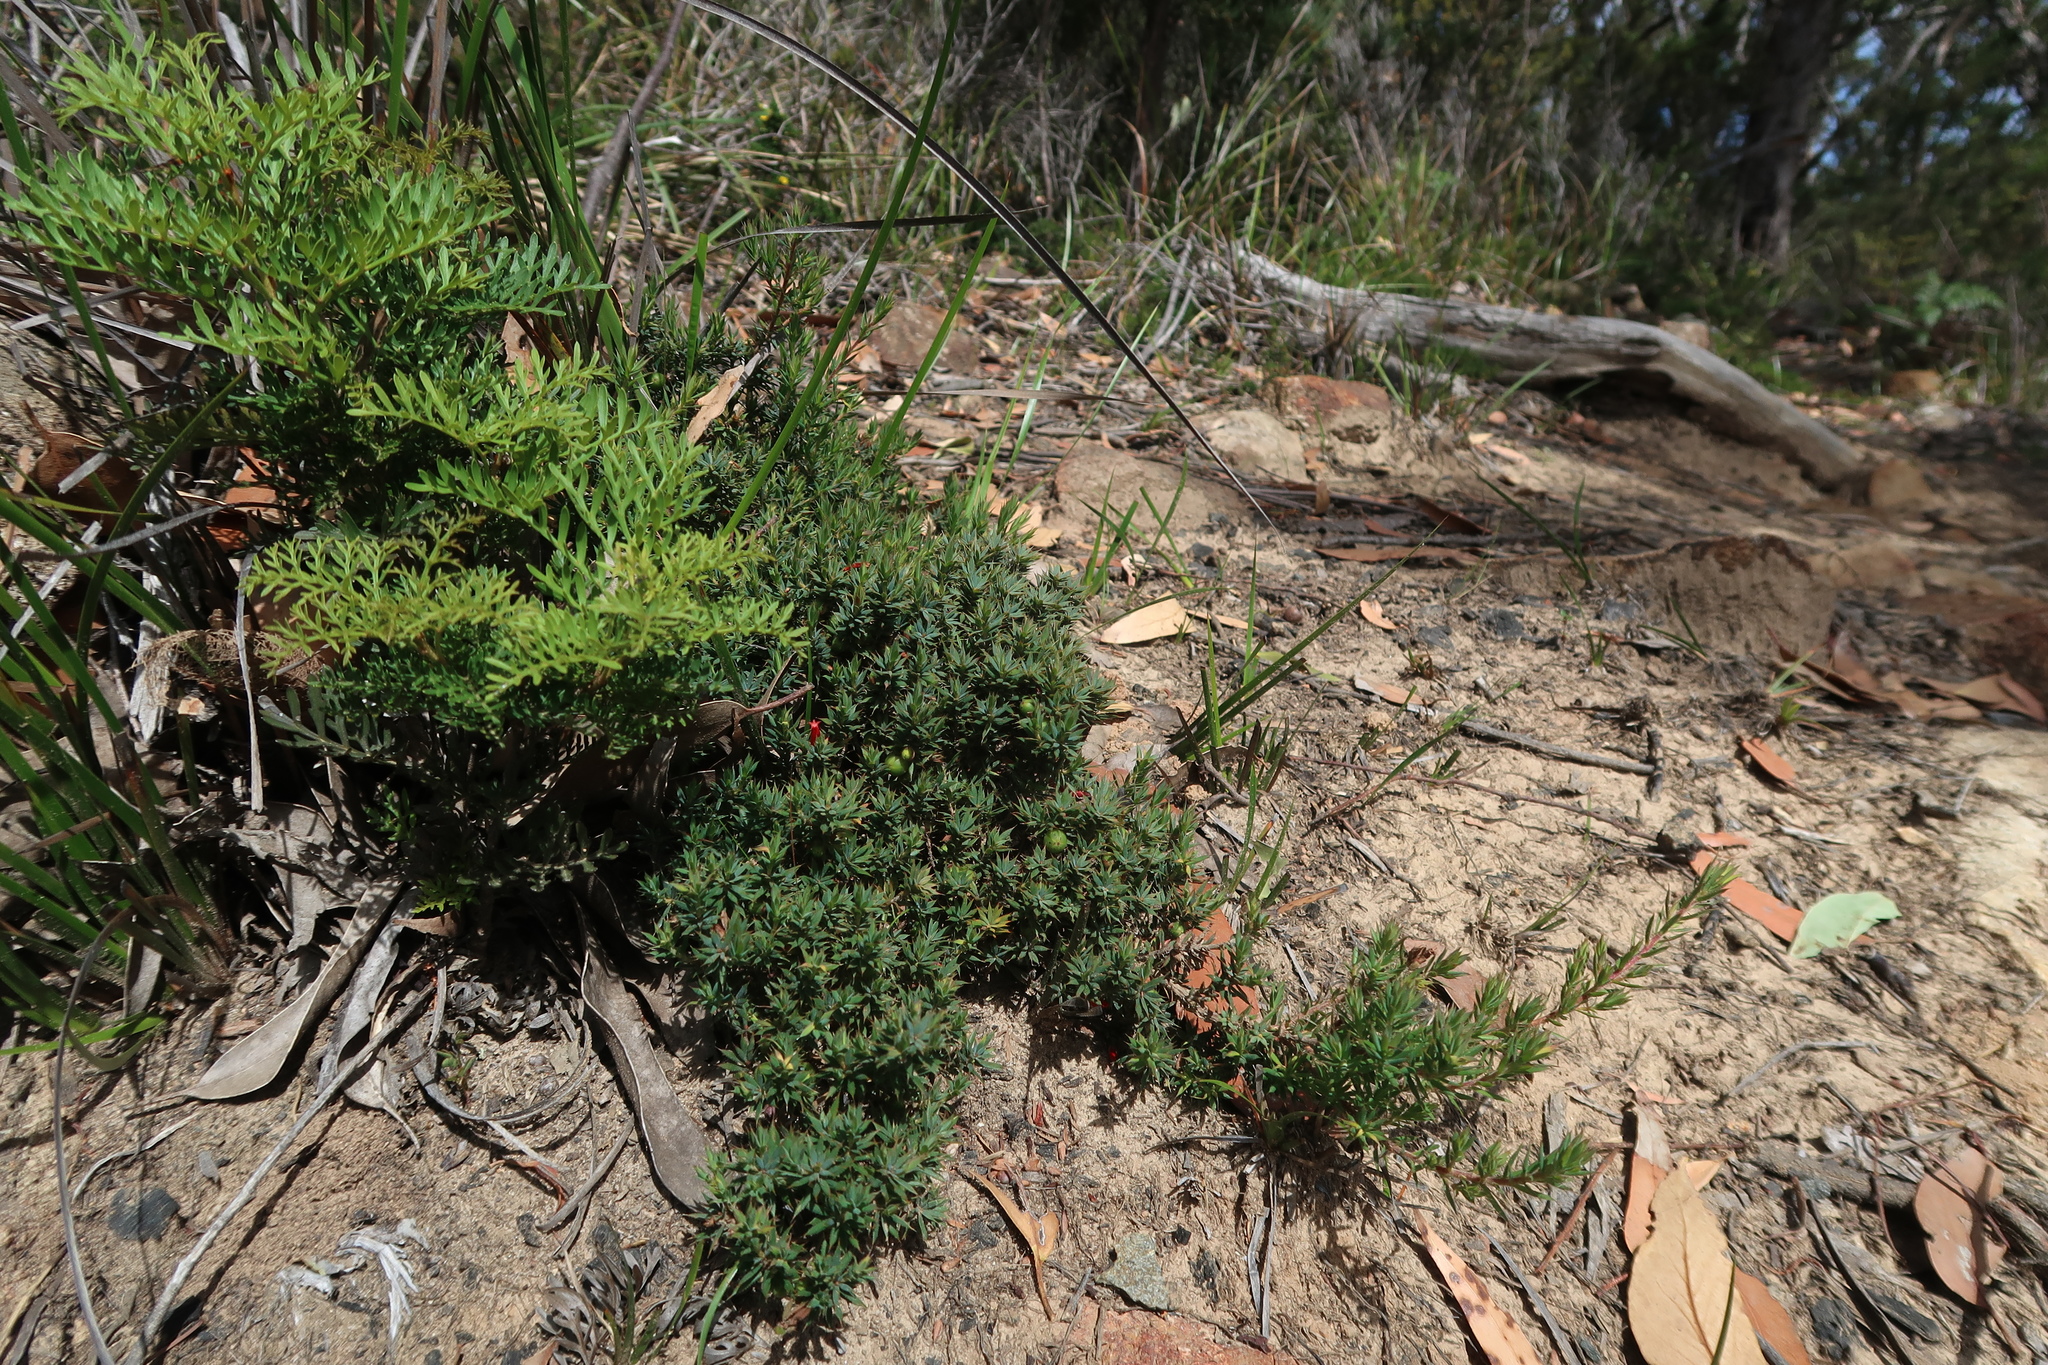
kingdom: Plantae
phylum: Tracheophyta
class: Magnoliopsida
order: Ericales
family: Ericaceae
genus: Styphelia
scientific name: Styphelia humifusa
